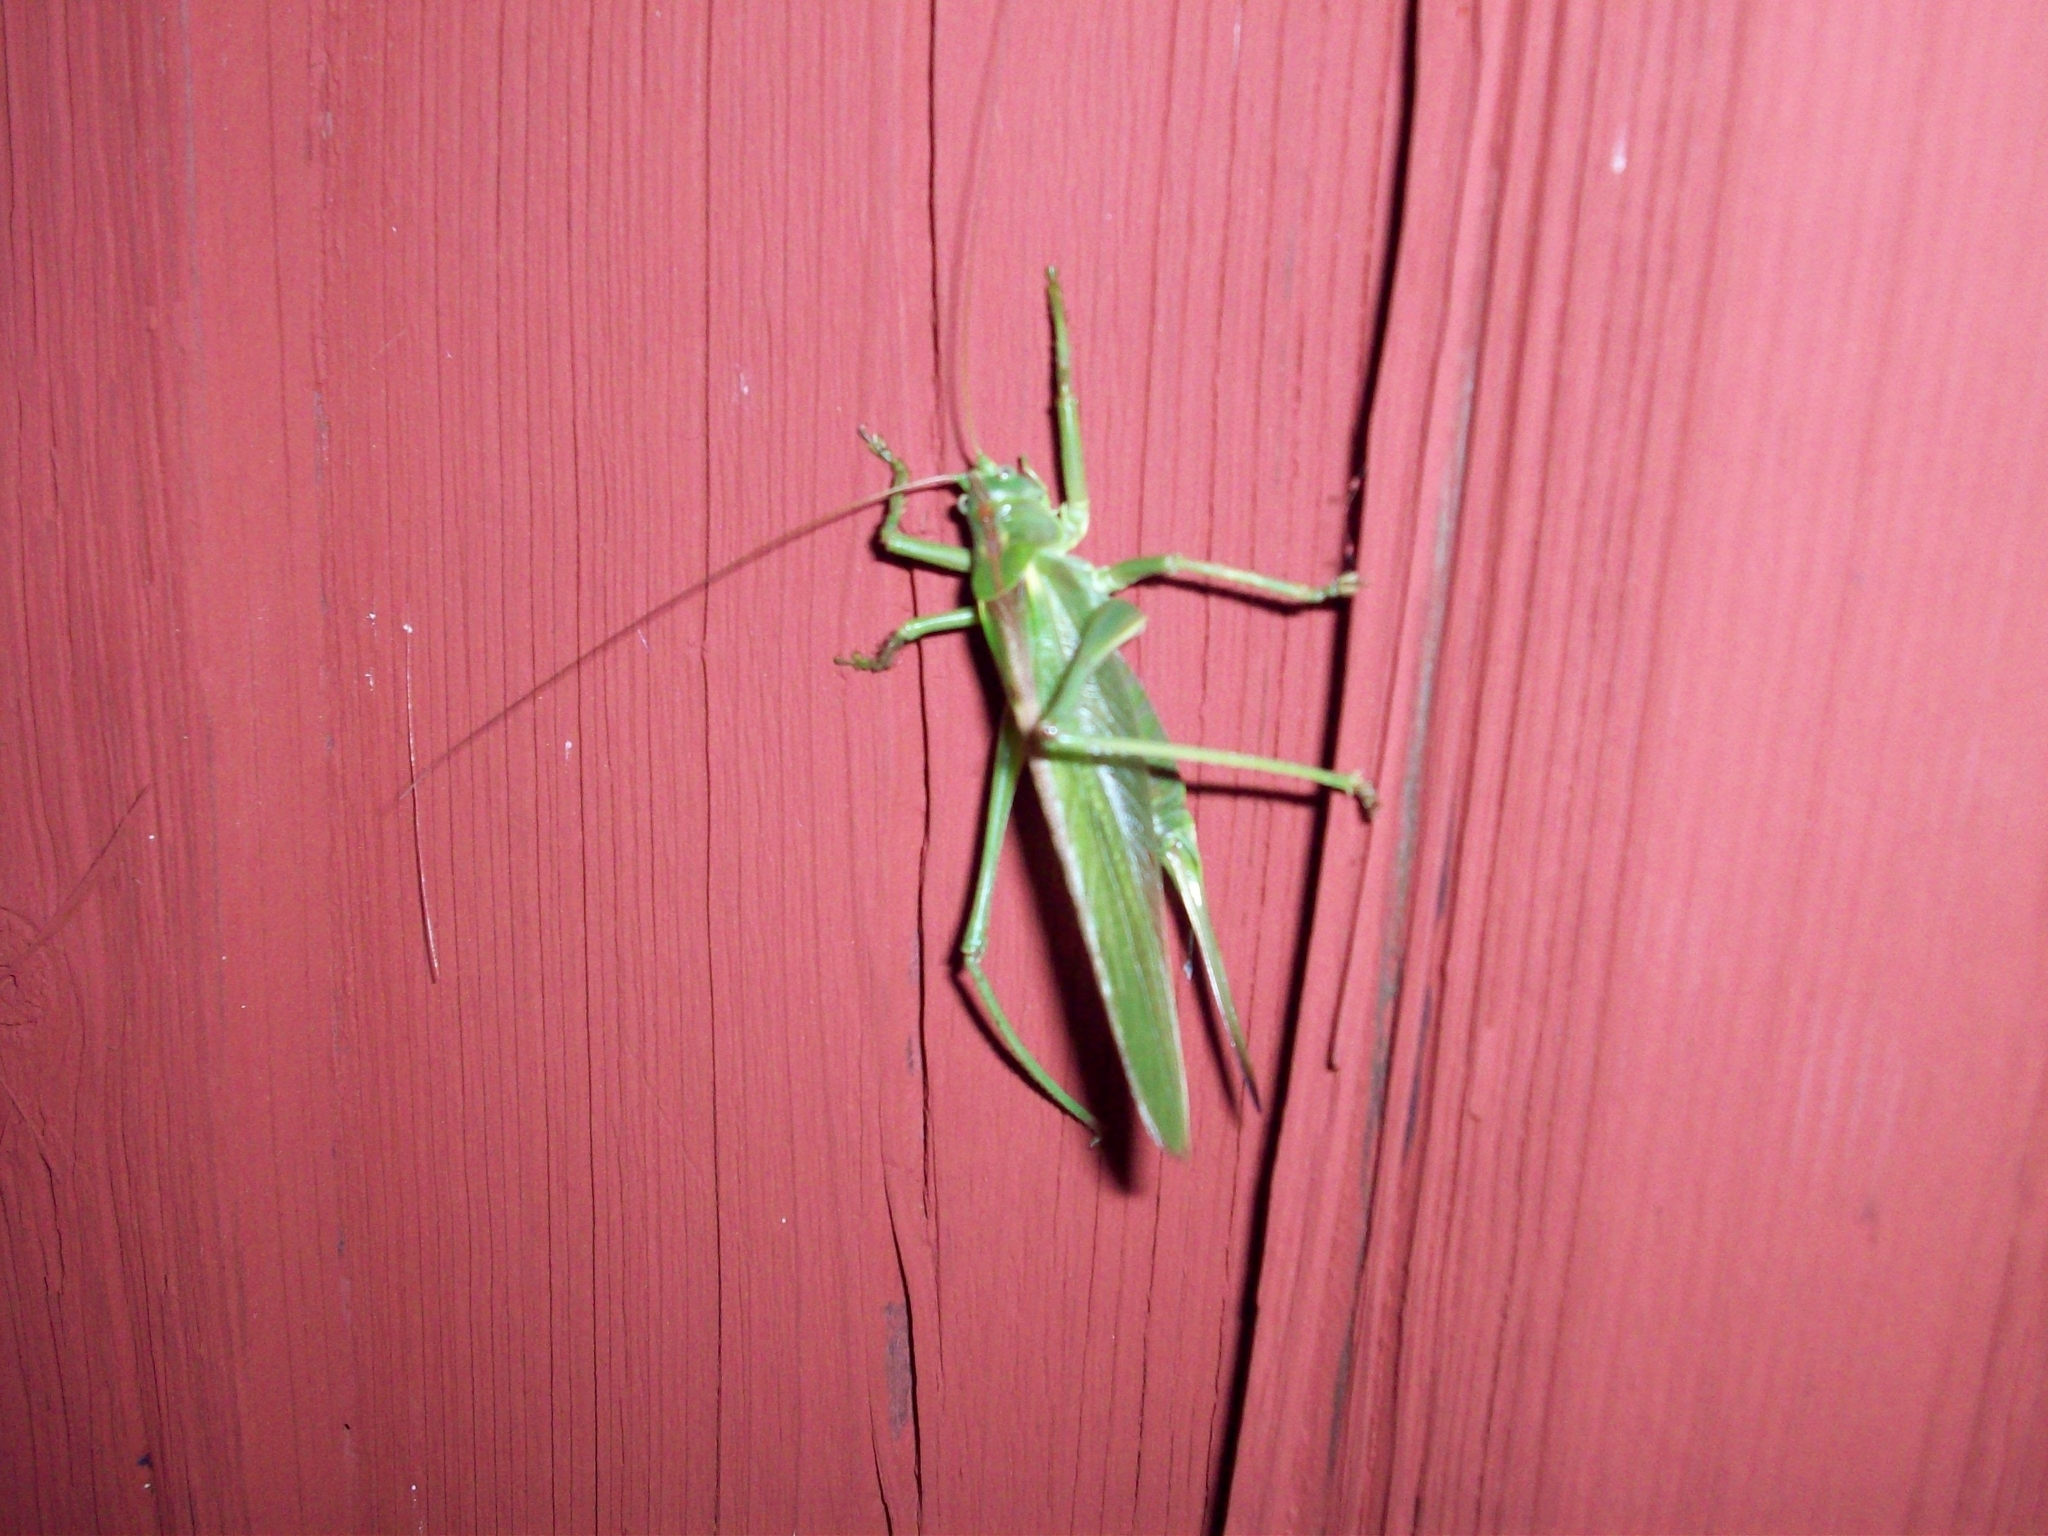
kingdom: Animalia
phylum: Arthropoda
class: Insecta
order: Orthoptera
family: Tettigoniidae
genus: Tettigonia
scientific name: Tettigonia viridissima
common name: Great green bush-cricket
